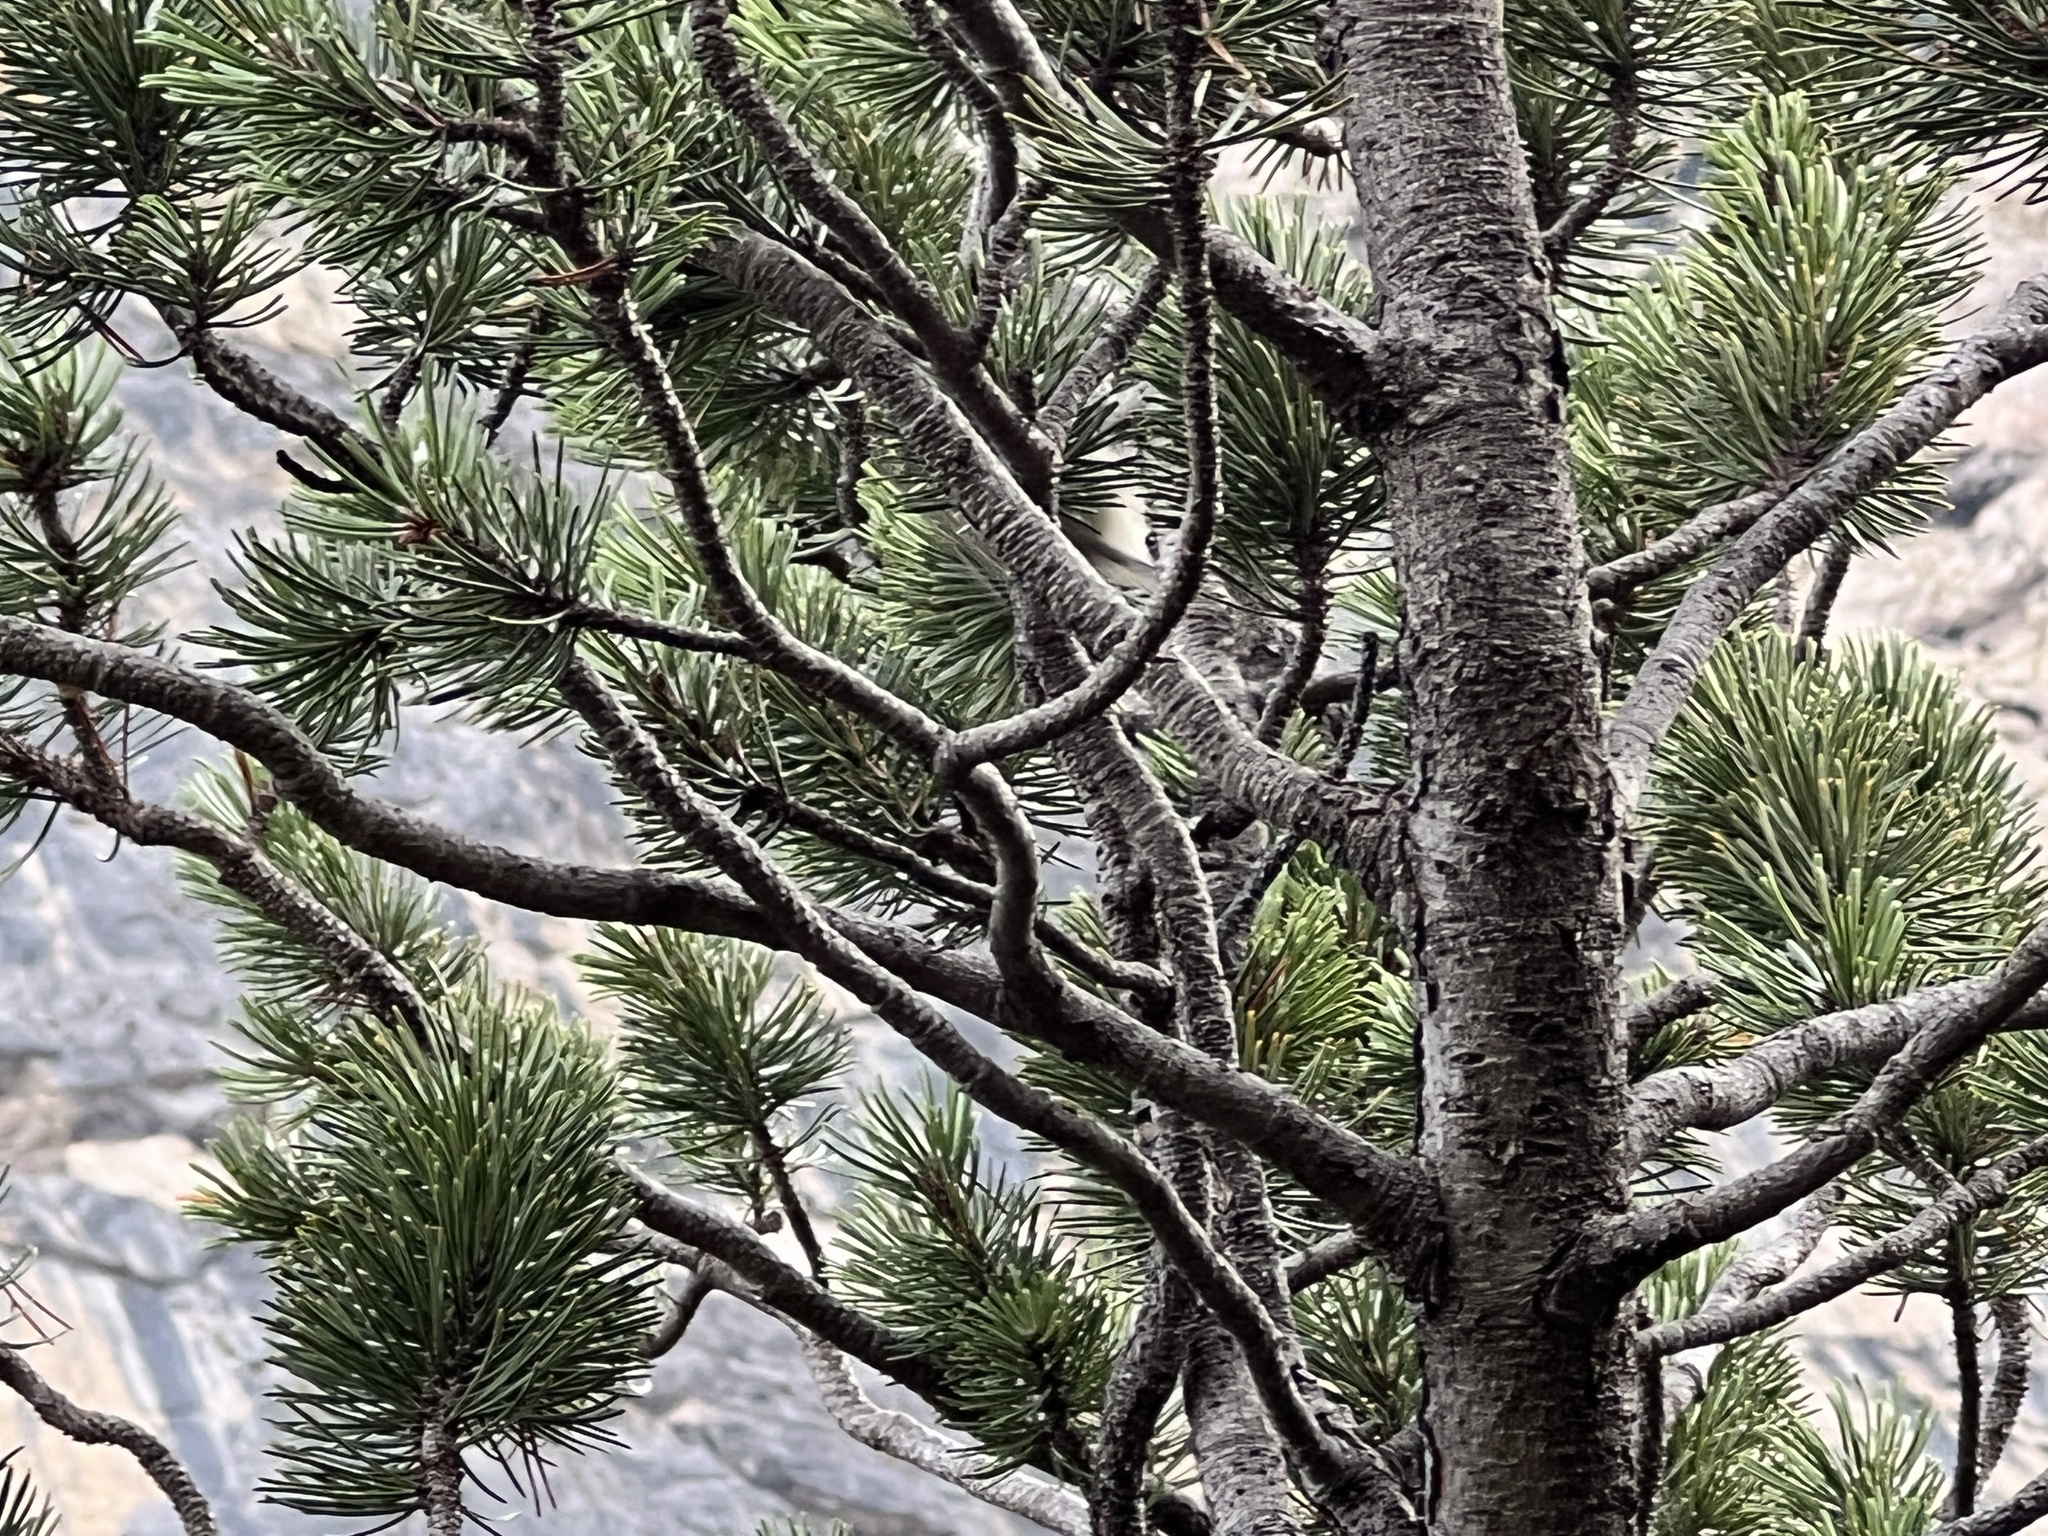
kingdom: Animalia
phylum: Chordata
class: Aves
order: Passeriformes
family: Paridae
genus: Periparus
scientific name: Periparus ater
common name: Coal tit
